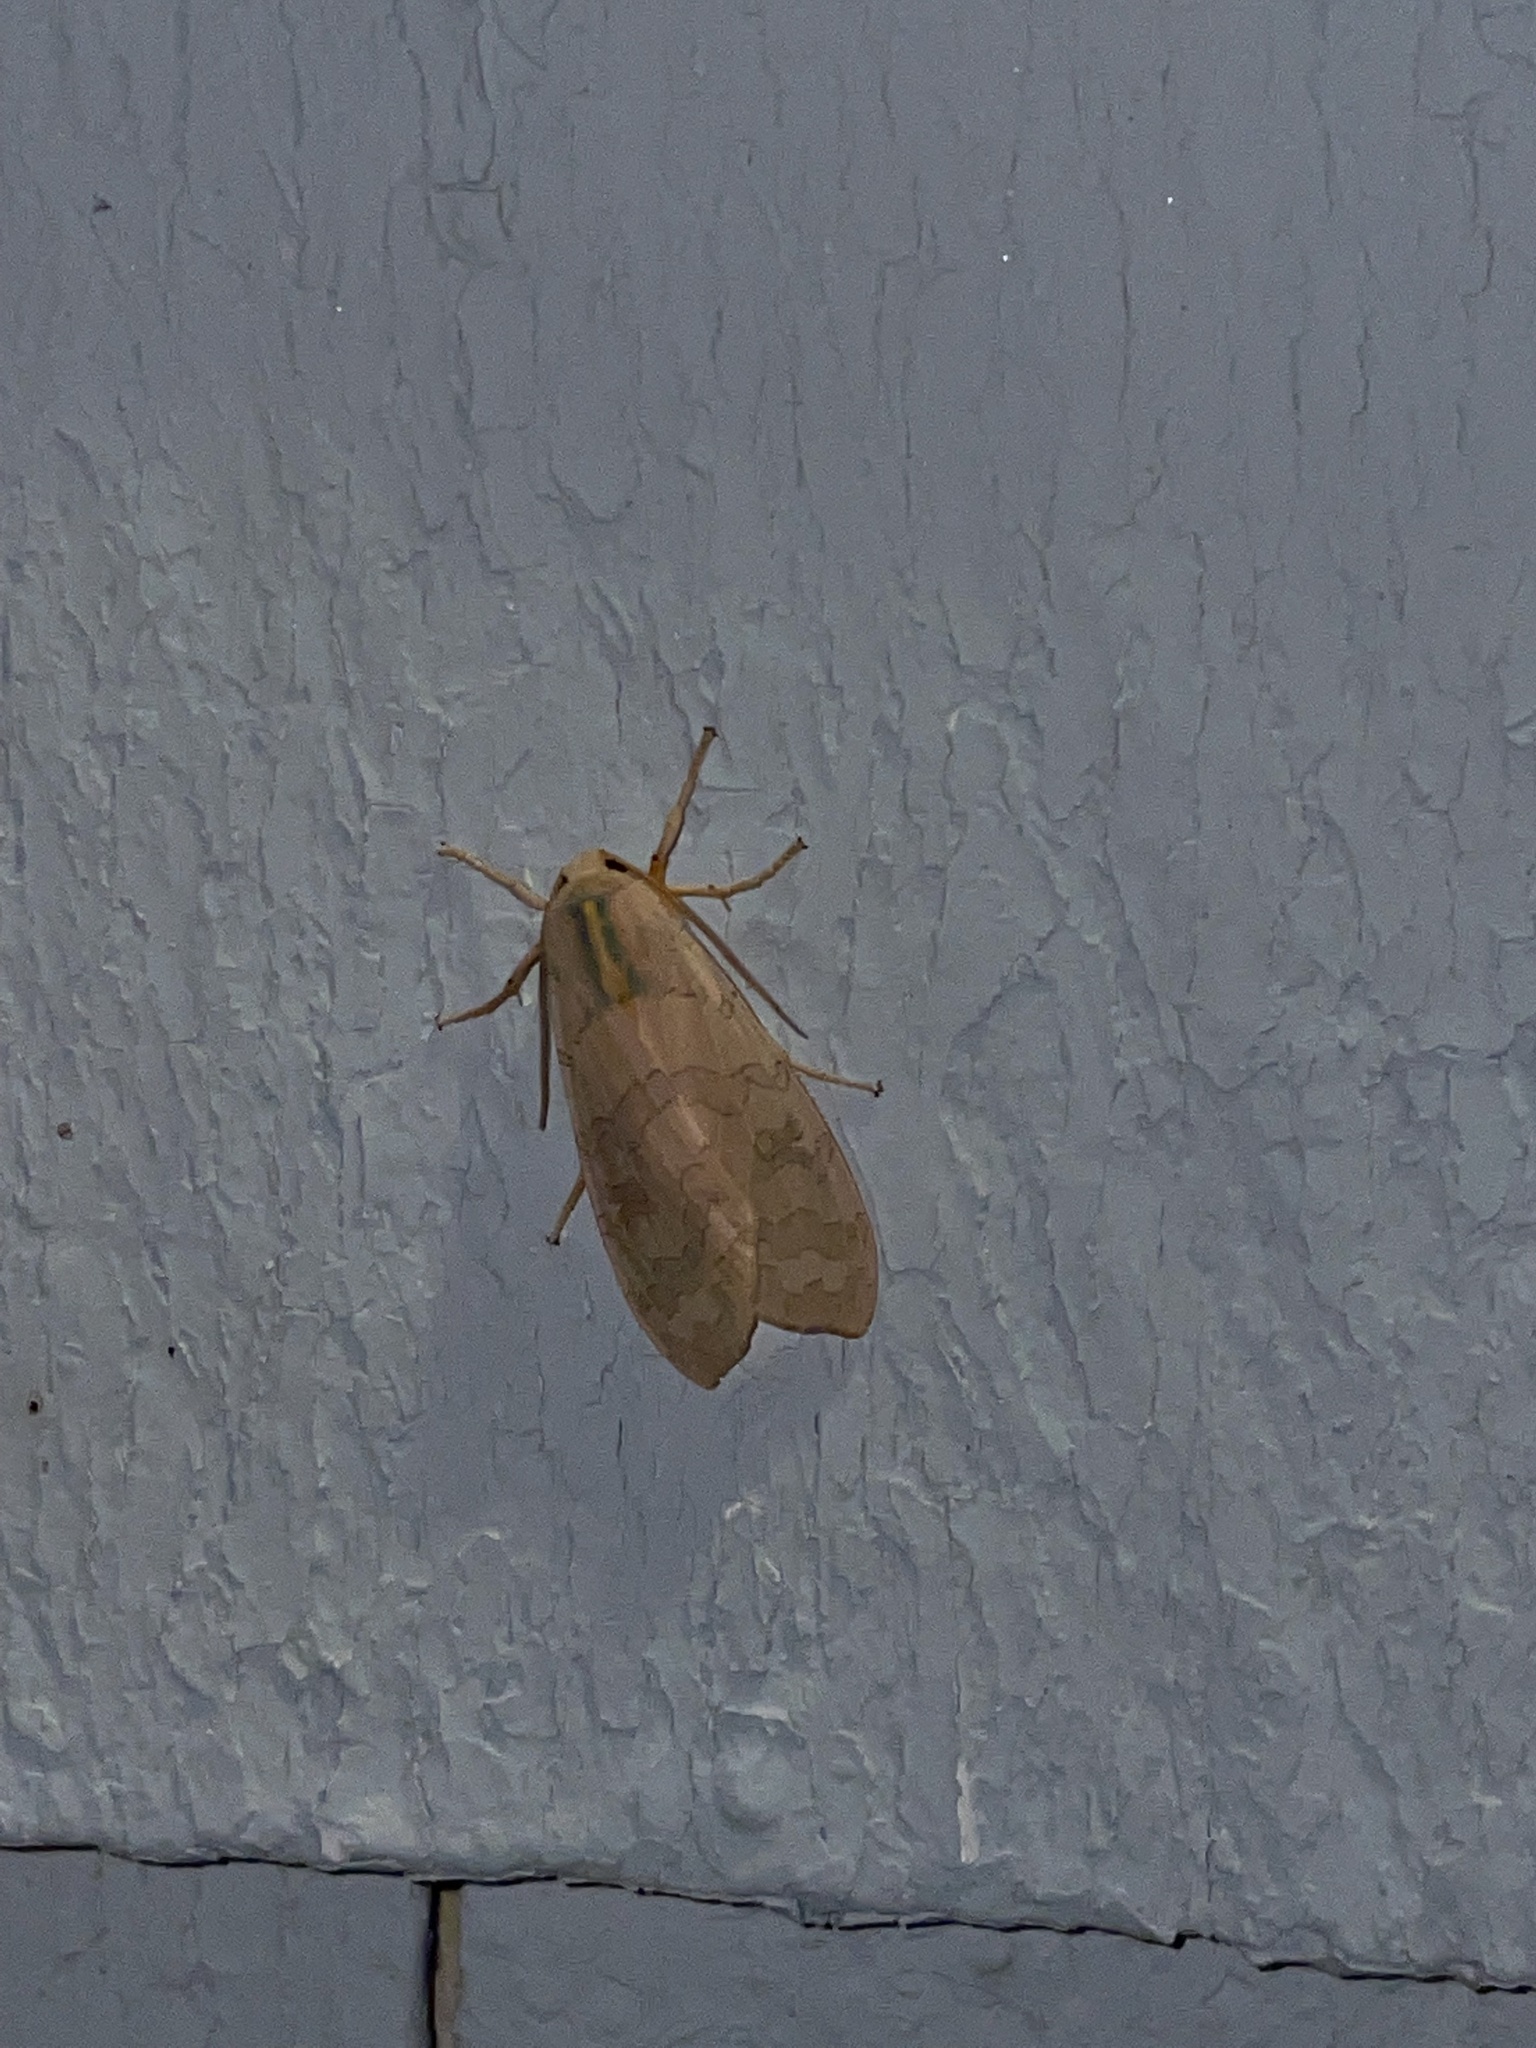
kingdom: Animalia
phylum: Arthropoda
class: Insecta
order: Lepidoptera
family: Erebidae
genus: Halysidota
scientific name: Halysidota tessellaris
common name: Banded tussock moth
